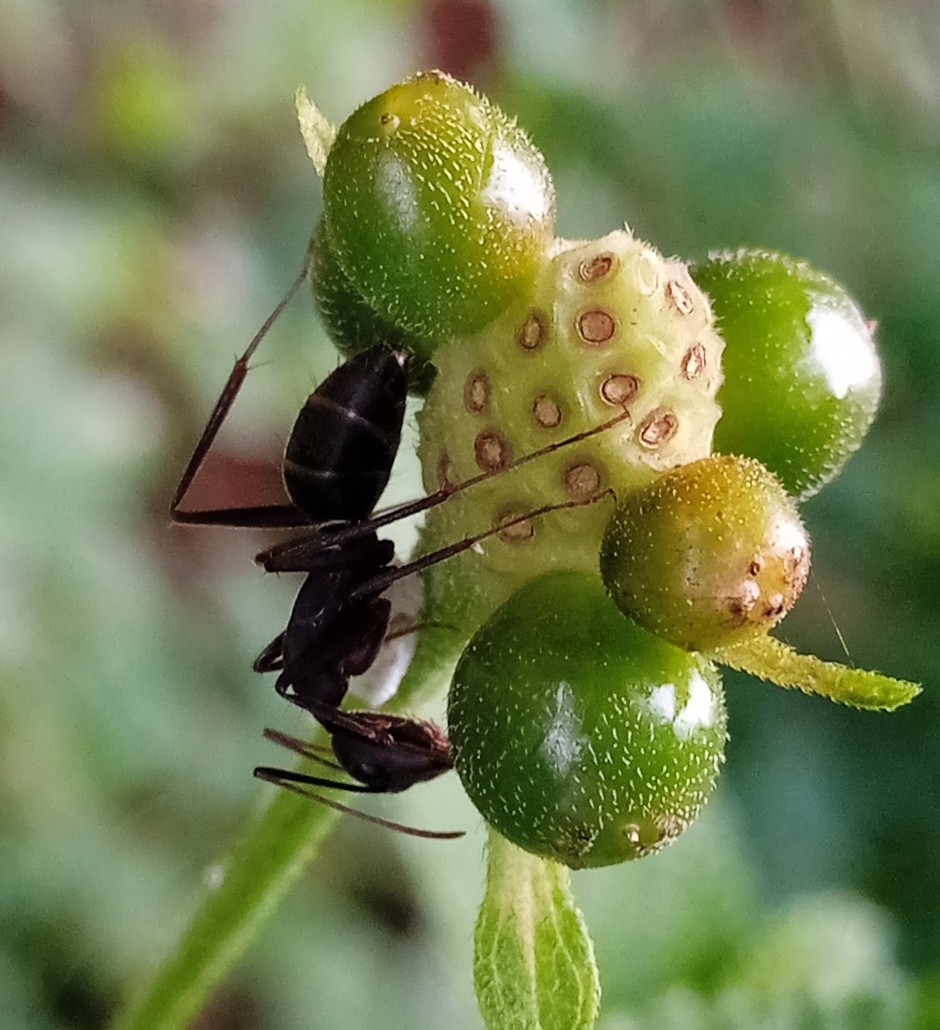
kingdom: Animalia
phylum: Arthropoda
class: Insecta
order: Hymenoptera
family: Formicidae
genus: Camponotus
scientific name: Camponotus compressus
